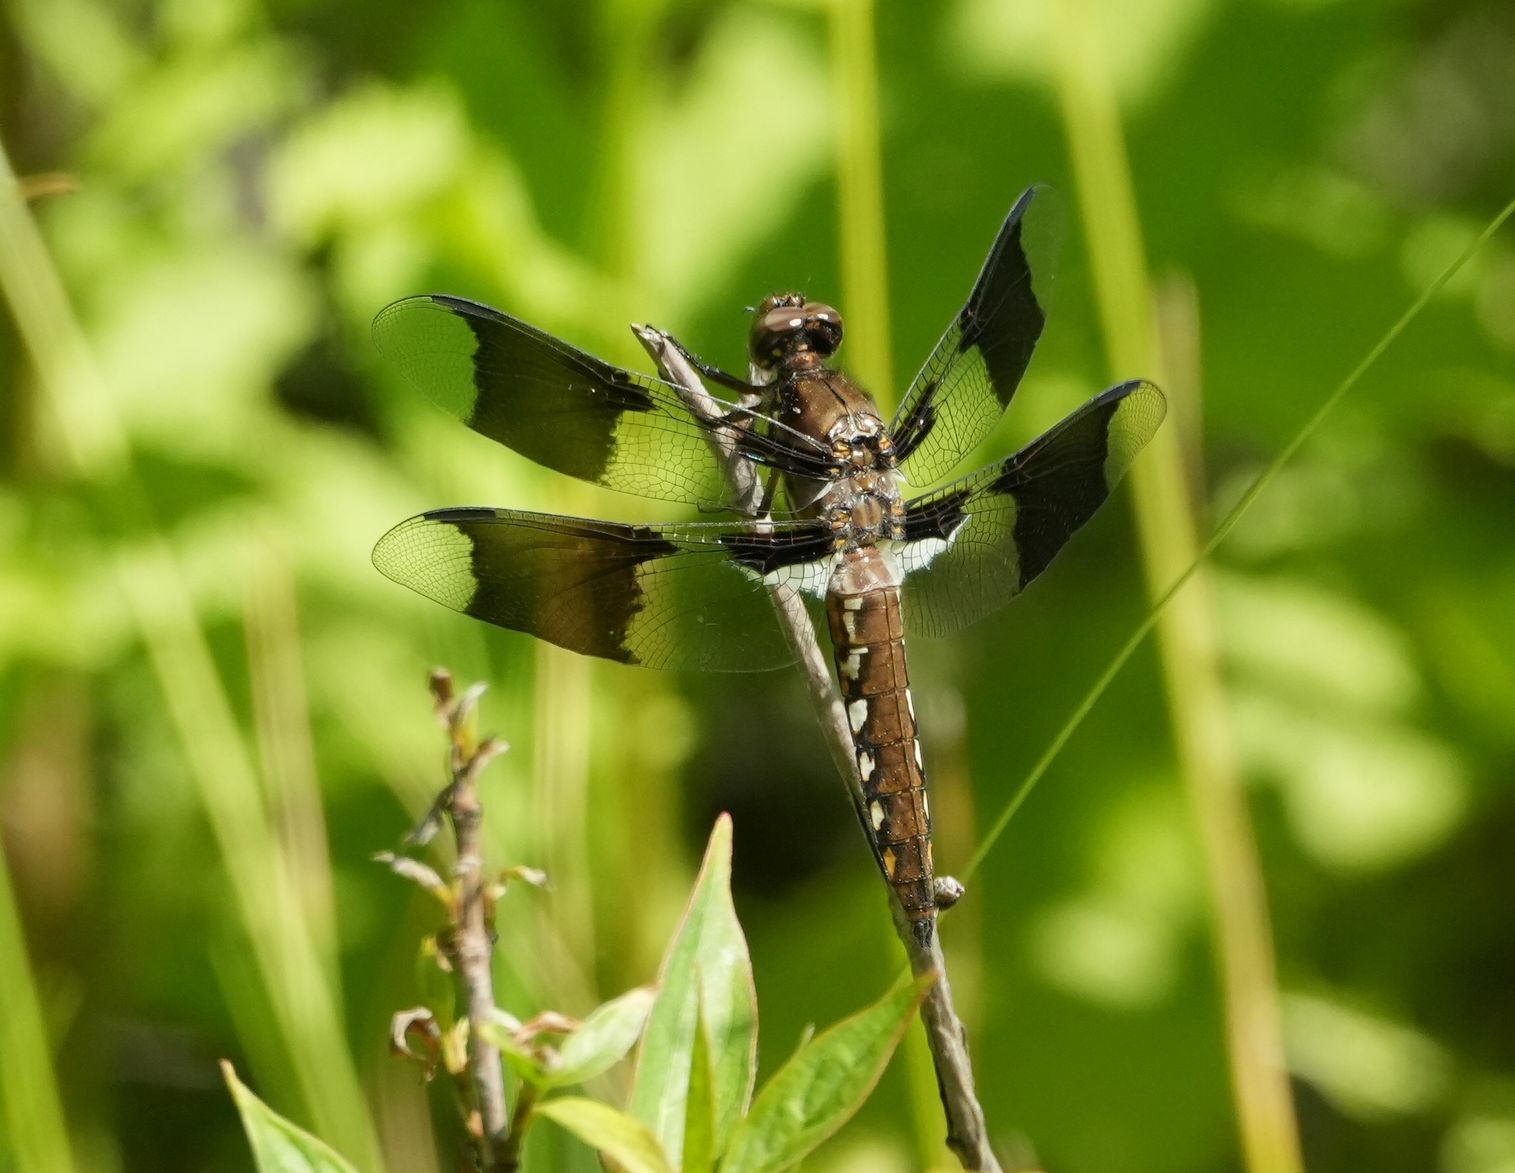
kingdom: Animalia
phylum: Arthropoda
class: Insecta
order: Odonata
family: Libellulidae
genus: Plathemis
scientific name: Plathemis lydia
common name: Common whitetail
